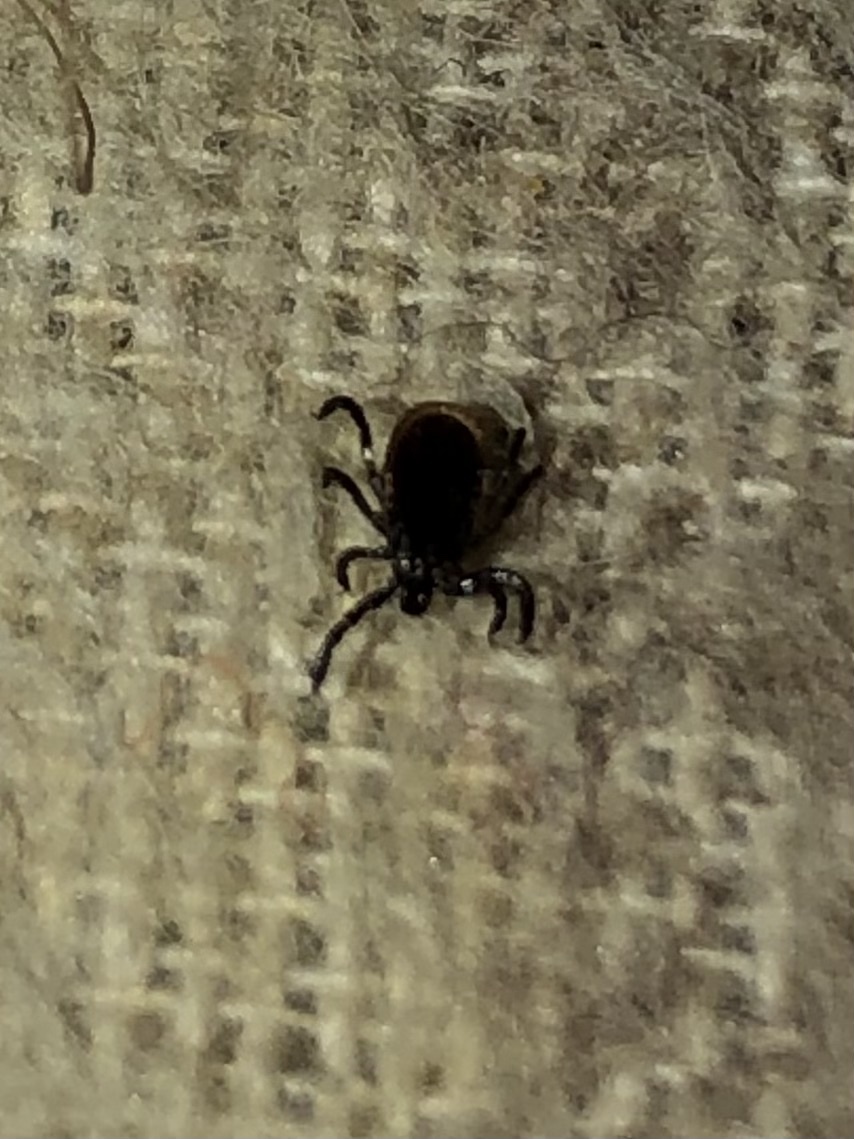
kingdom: Animalia
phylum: Arthropoda
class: Arachnida
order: Ixodida
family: Ixodidae
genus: Ixodes
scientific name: Ixodes scapularis
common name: Black legged tick
